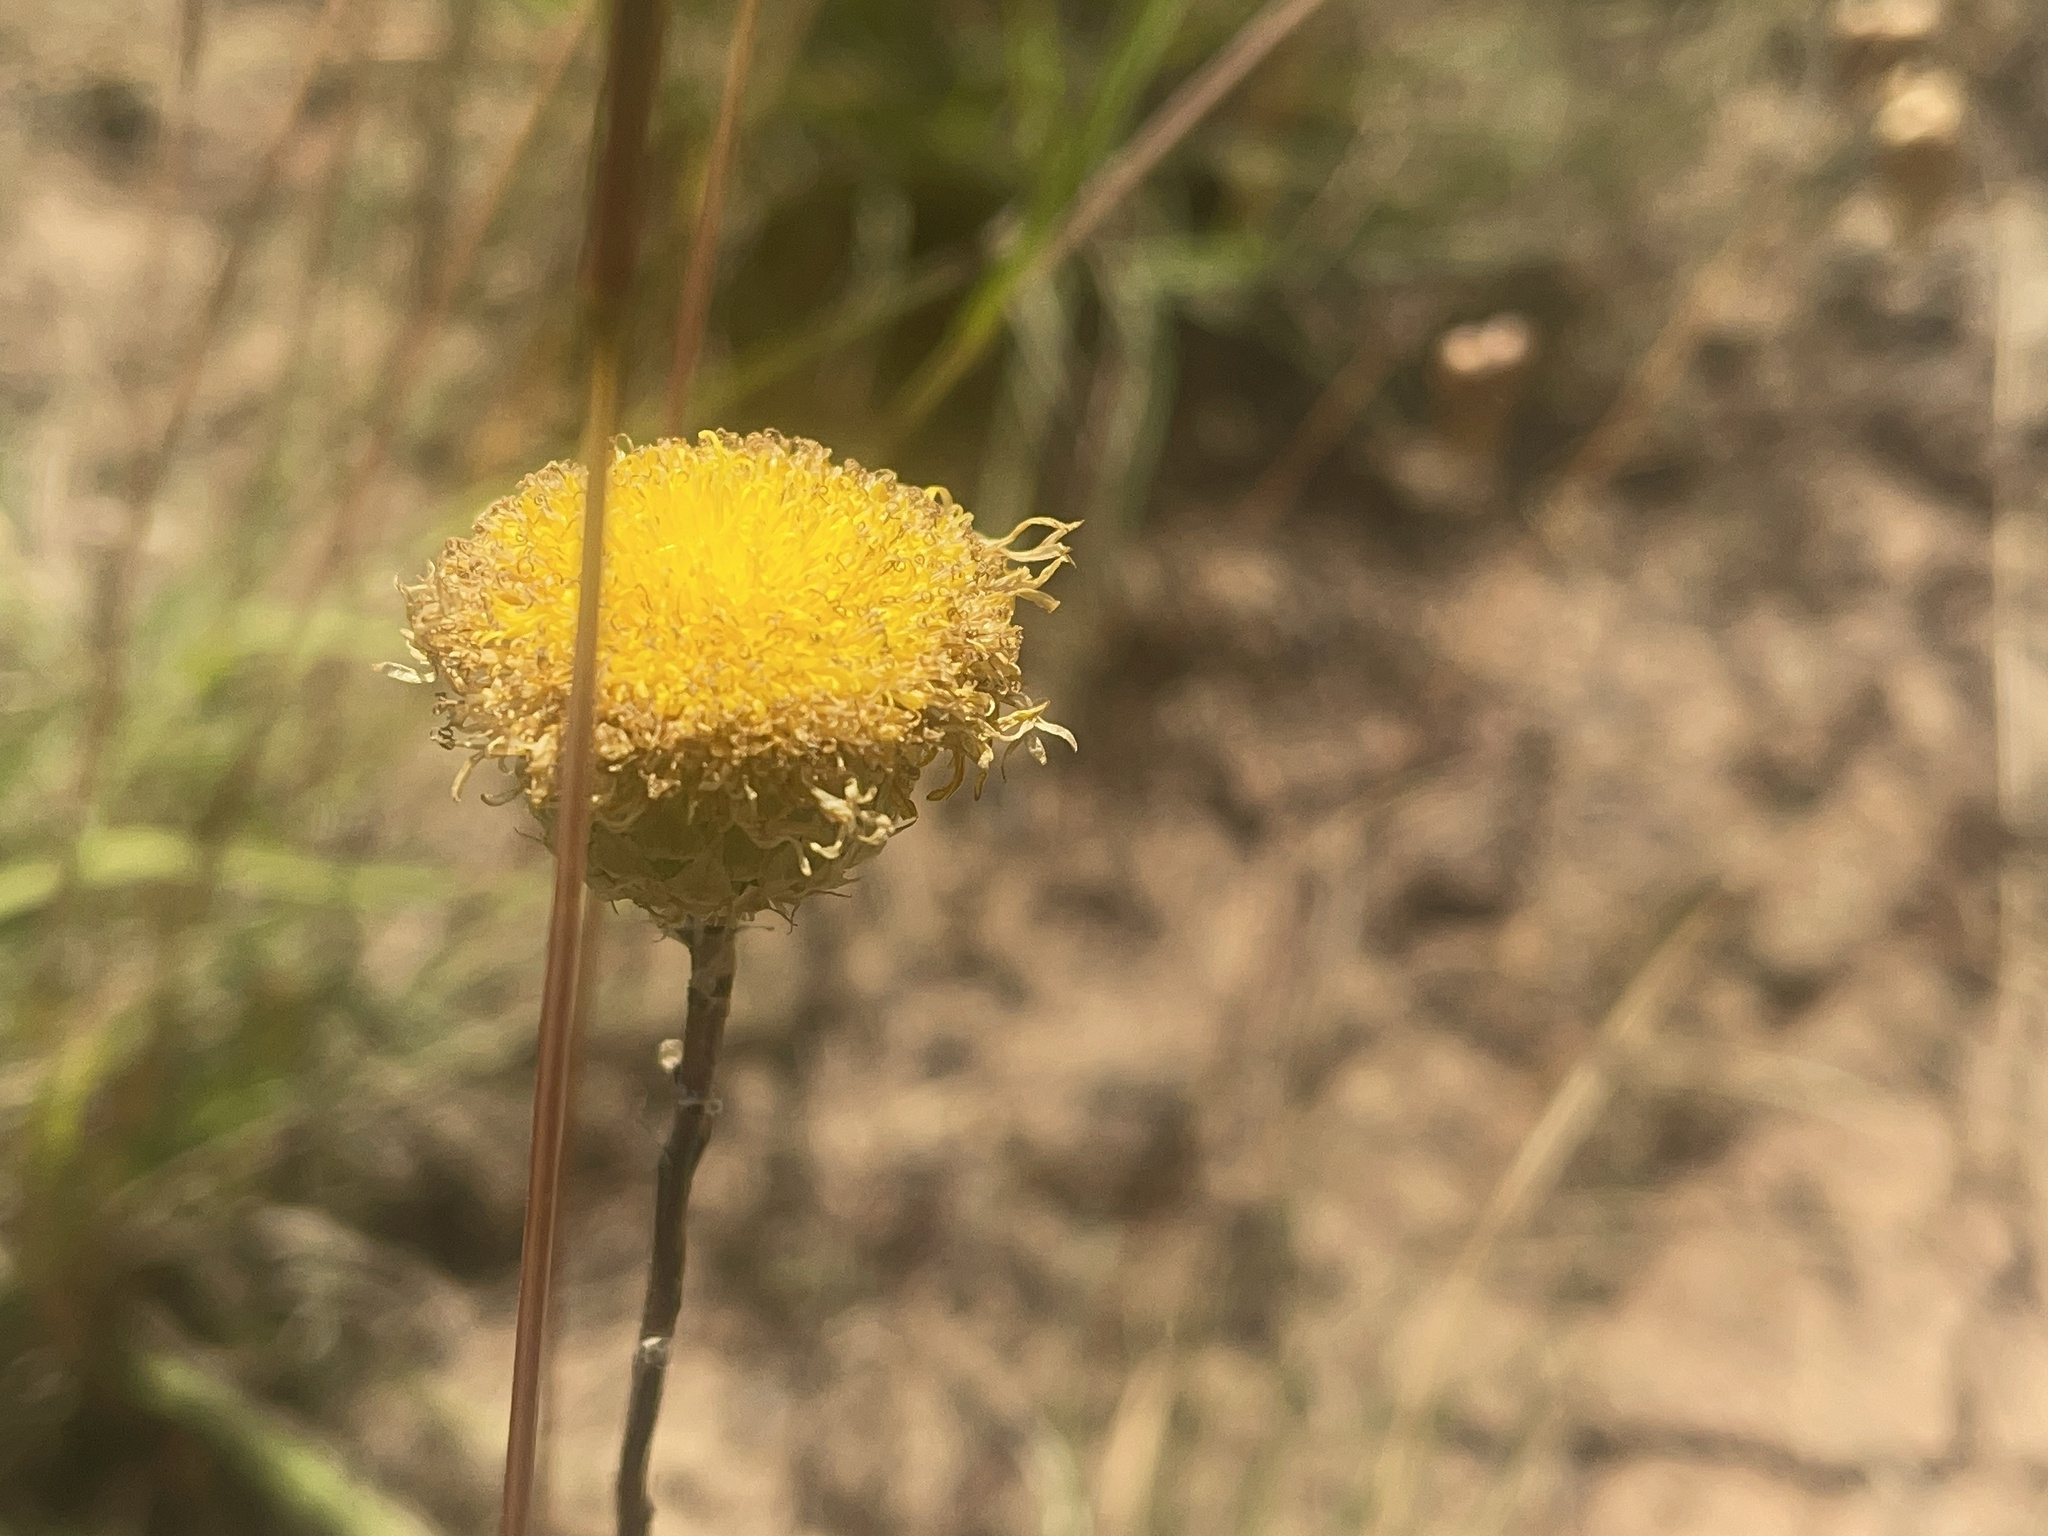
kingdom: Plantae
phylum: Tracheophyta
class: Magnoliopsida
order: Asterales
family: Asteraceae
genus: Podolepis
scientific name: Podolepis linearifolia
